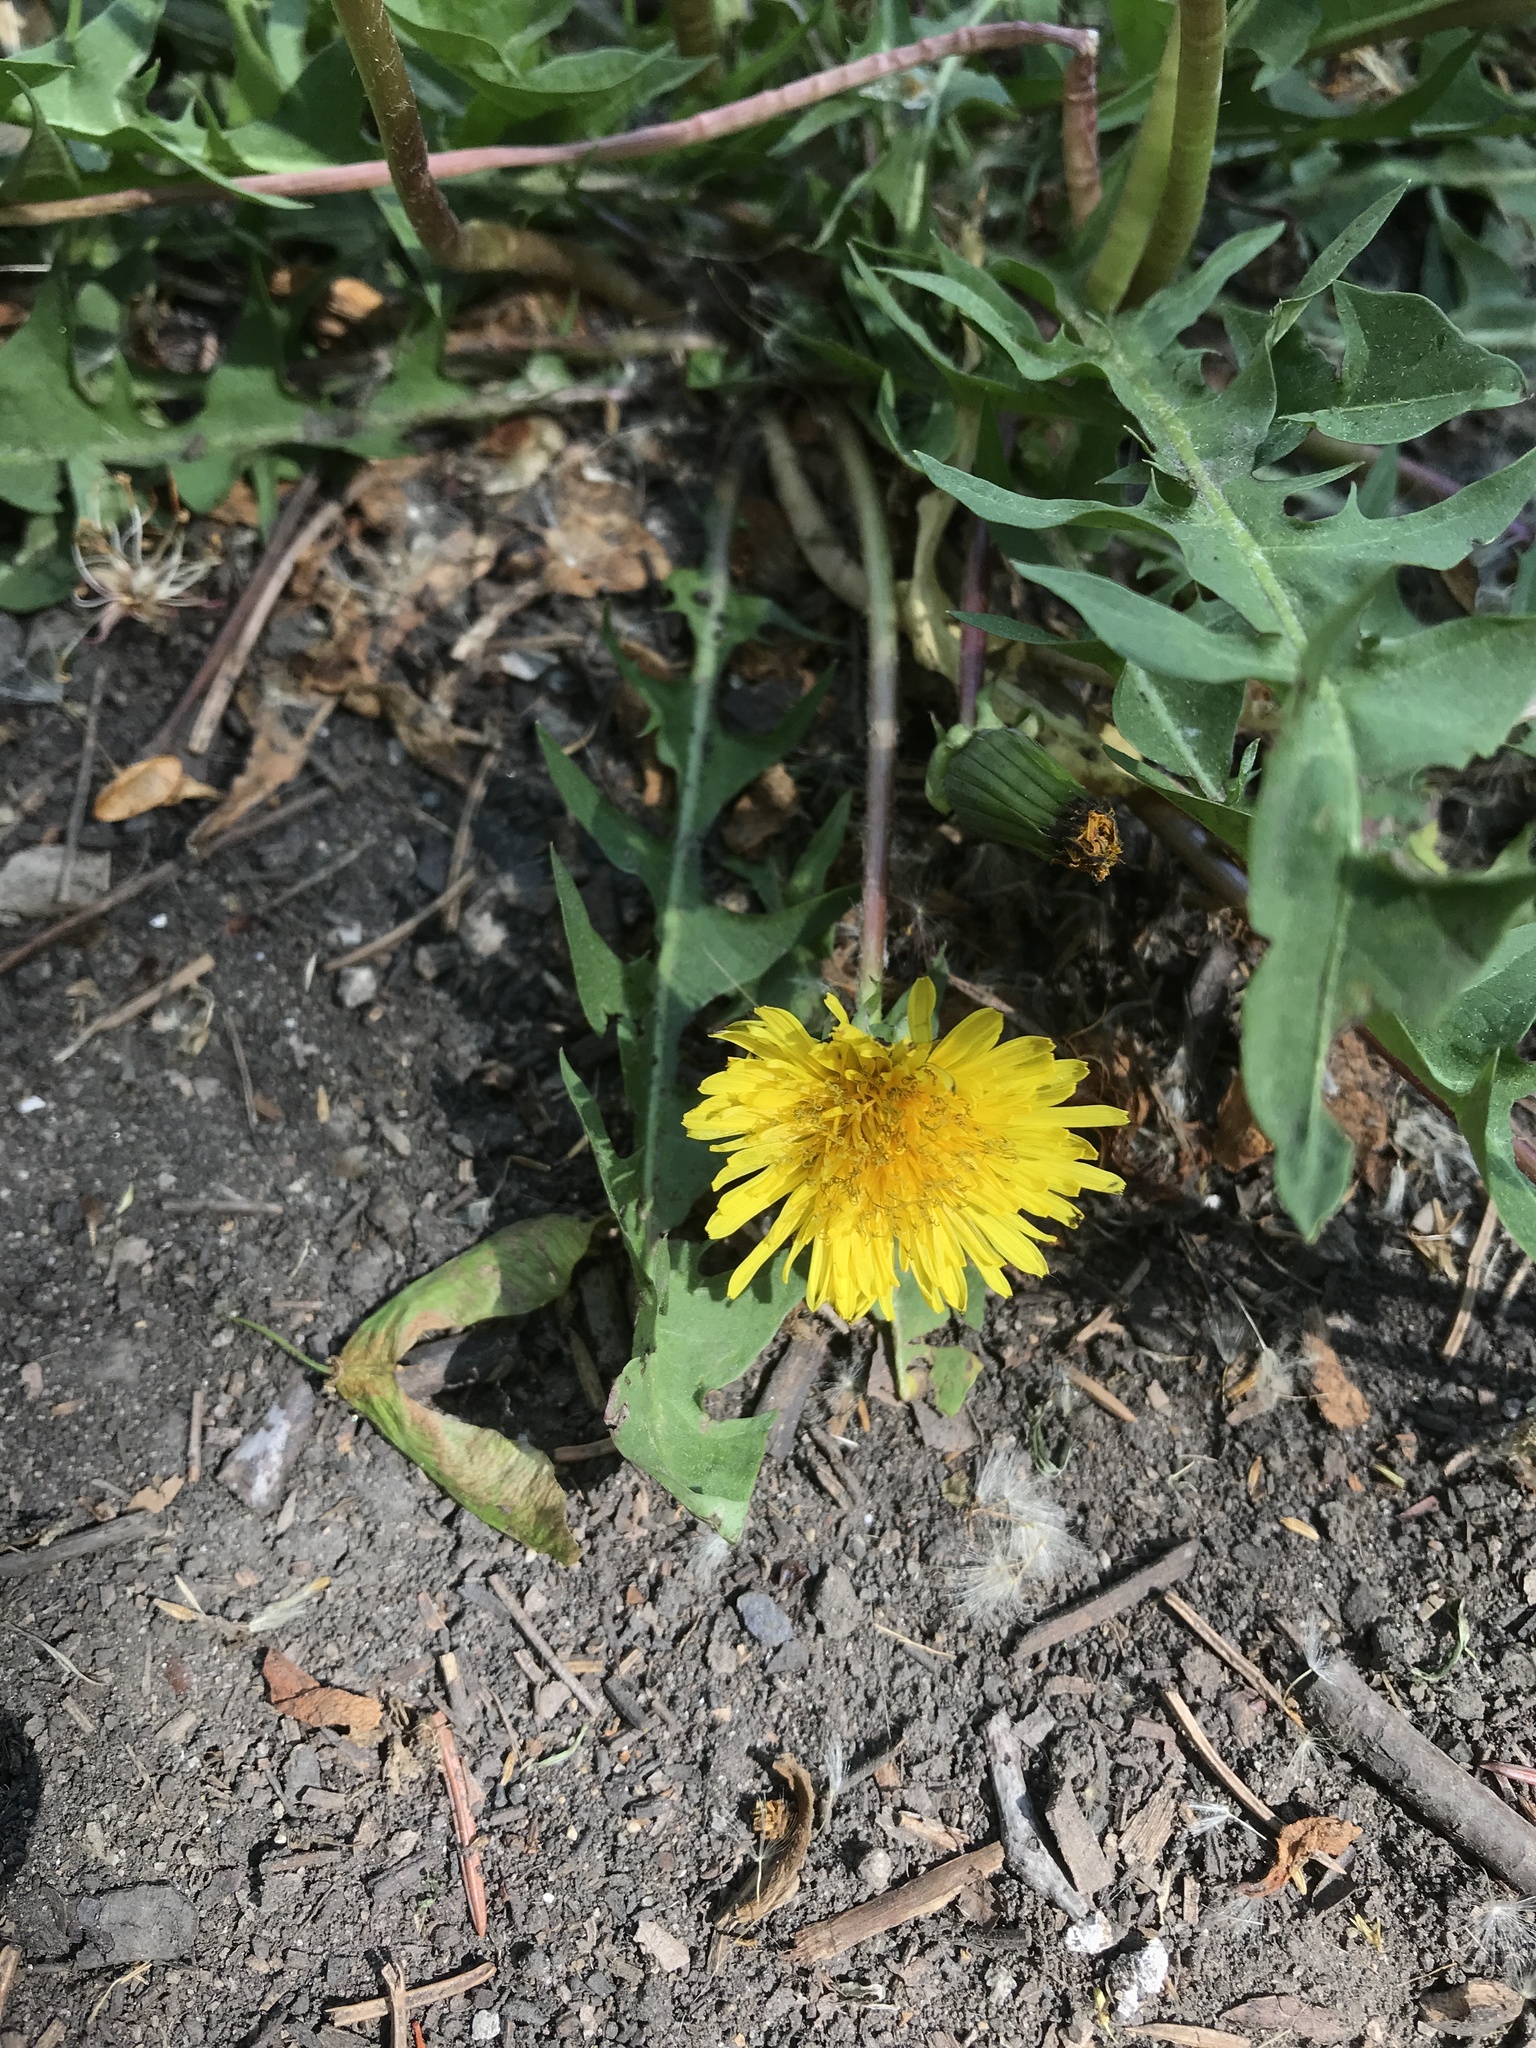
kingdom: Plantae
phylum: Tracheophyta
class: Magnoliopsida
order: Asterales
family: Asteraceae
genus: Taraxacum
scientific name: Taraxacum officinale
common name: Common dandelion
